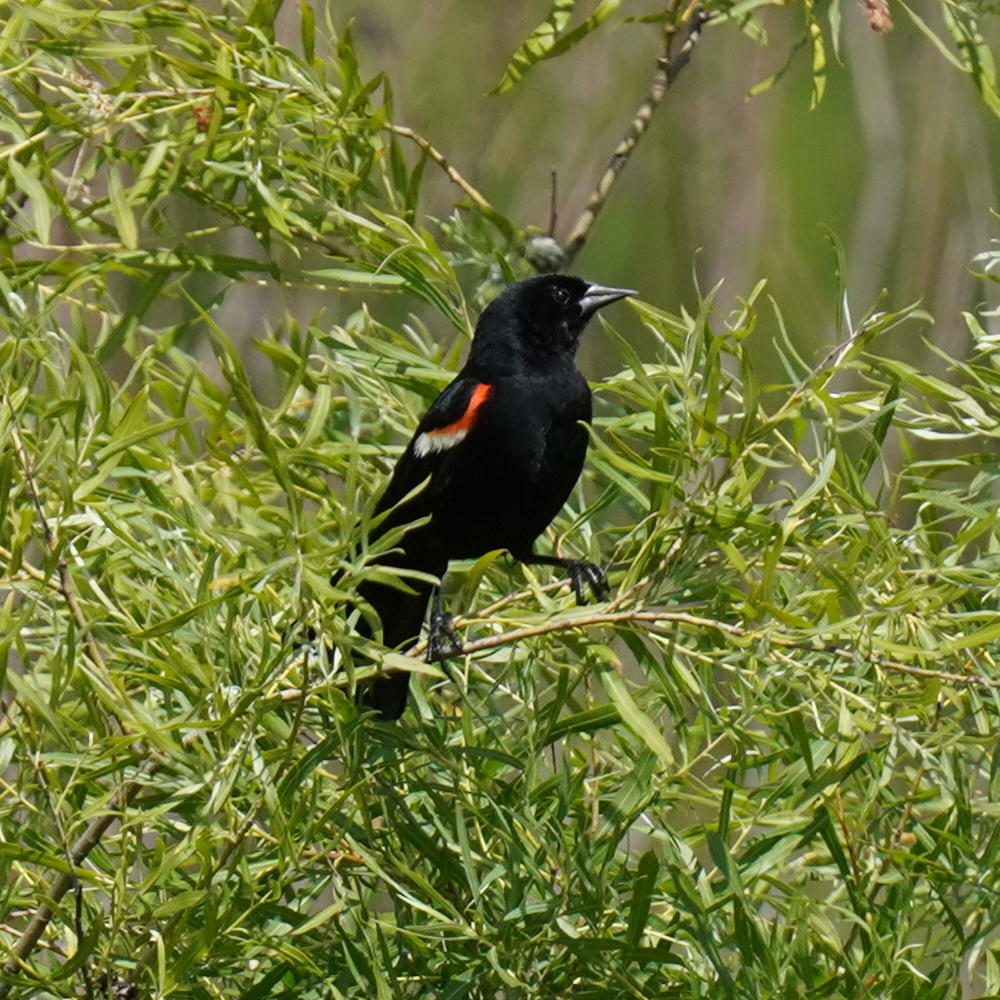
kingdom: Animalia
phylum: Chordata
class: Aves
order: Passeriformes
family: Icteridae
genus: Agelaius
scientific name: Agelaius phoeniceus
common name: Red-winged blackbird
